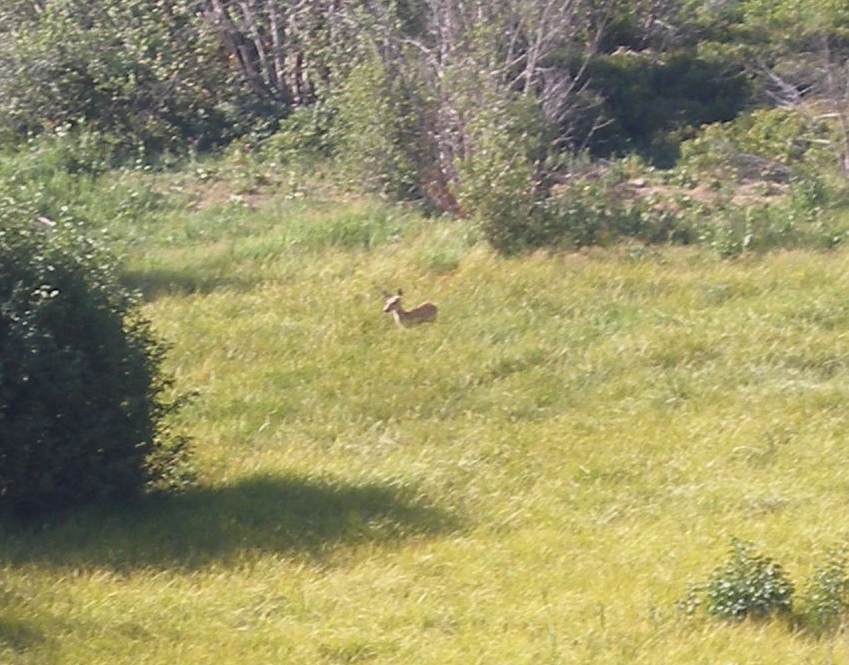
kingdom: Animalia
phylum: Chordata
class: Mammalia
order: Artiodactyla
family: Cervidae
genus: Odocoileus
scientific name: Odocoileus hemionus
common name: Mule deer
